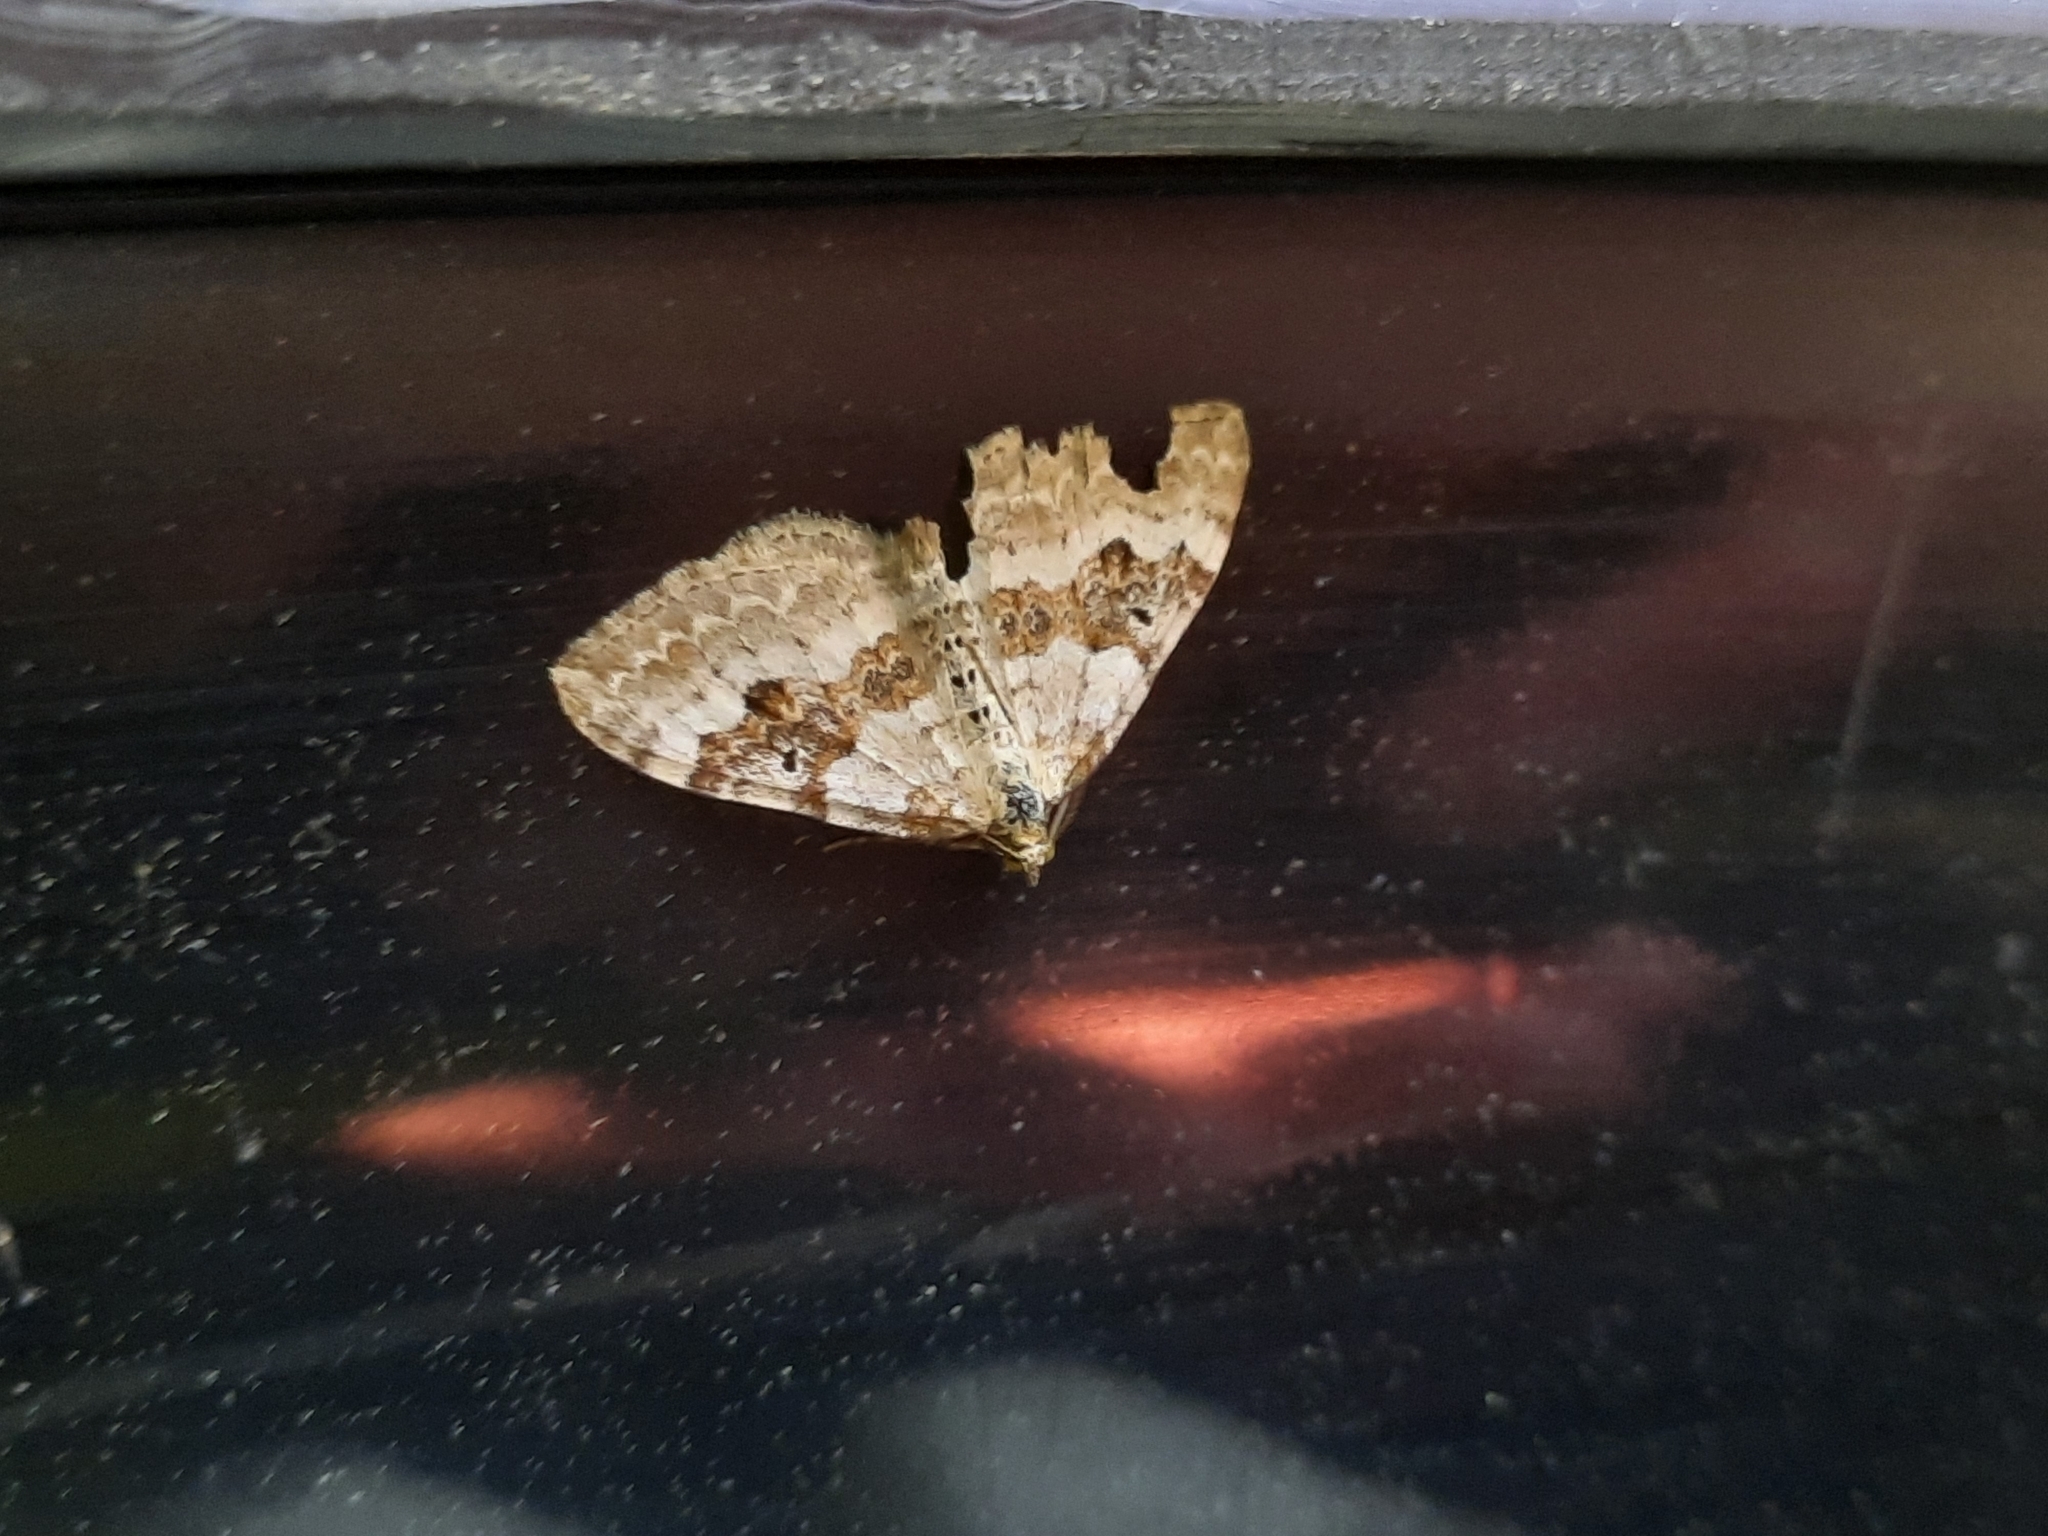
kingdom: Animalia
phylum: Arthropoda
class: Insecta
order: Lepidoptera
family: Geometridae
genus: Xanthorhoe
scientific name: Xanthorhoe montanata
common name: Silver-ground carpet
